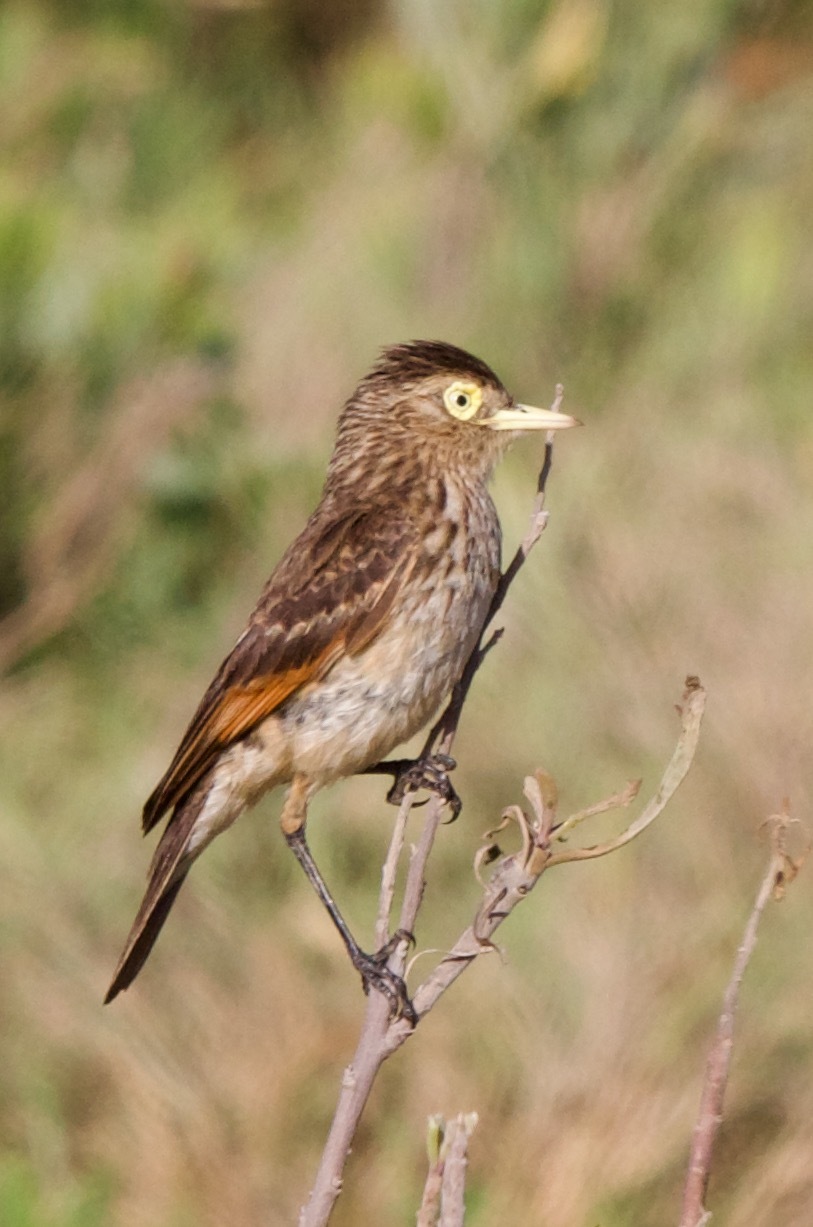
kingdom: Animalia
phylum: Chordata
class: Aves
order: Passeriformes
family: Tyrannidae
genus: Hymenops
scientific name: Hymenops perspicillatus
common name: Spectacled tyrant
